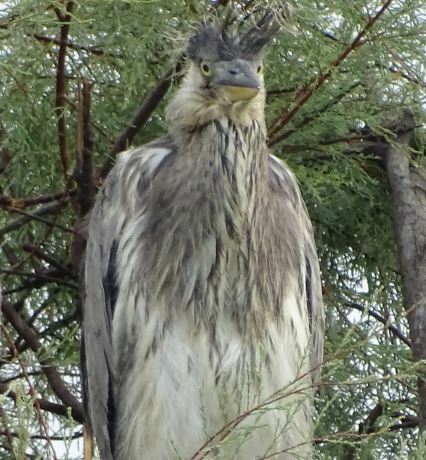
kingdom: Animalia
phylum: Chordata
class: Aves
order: Pelecaniformes
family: Ardeidae
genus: Ardea
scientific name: Ardea cinerea
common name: Grey heron
